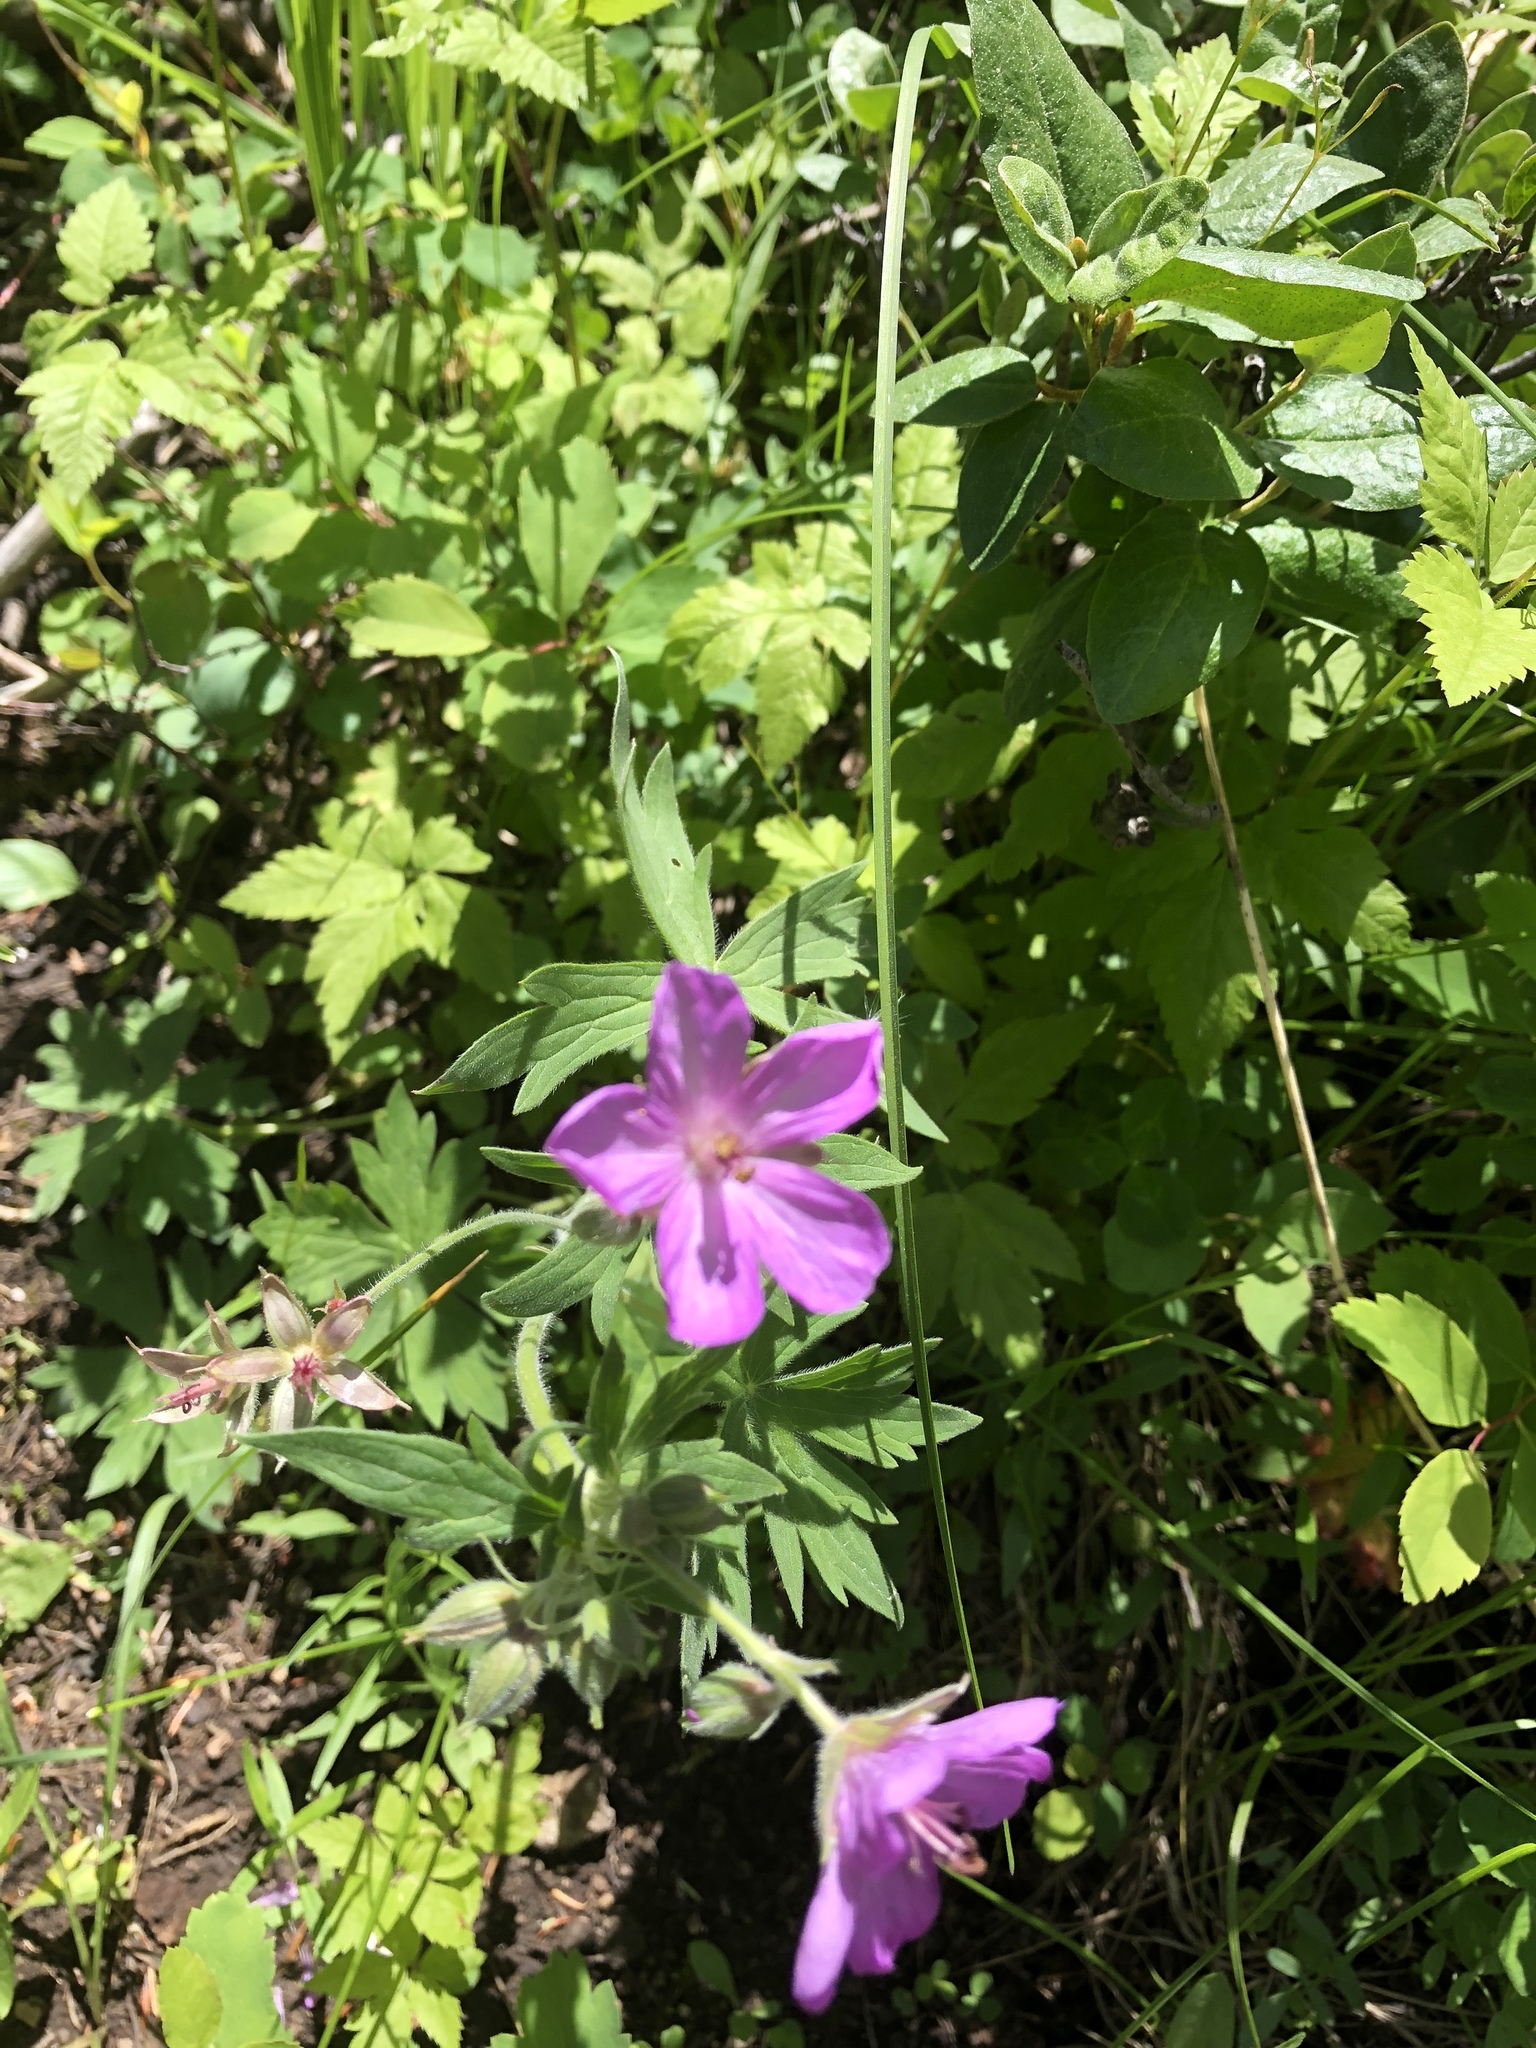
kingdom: Plantae
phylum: Tracheophyta
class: Magnoliopsida
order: Geraniales
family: Geraniaceae
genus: Geranium
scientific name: Geranium richardsonii
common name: Richardson's crane's-bill
